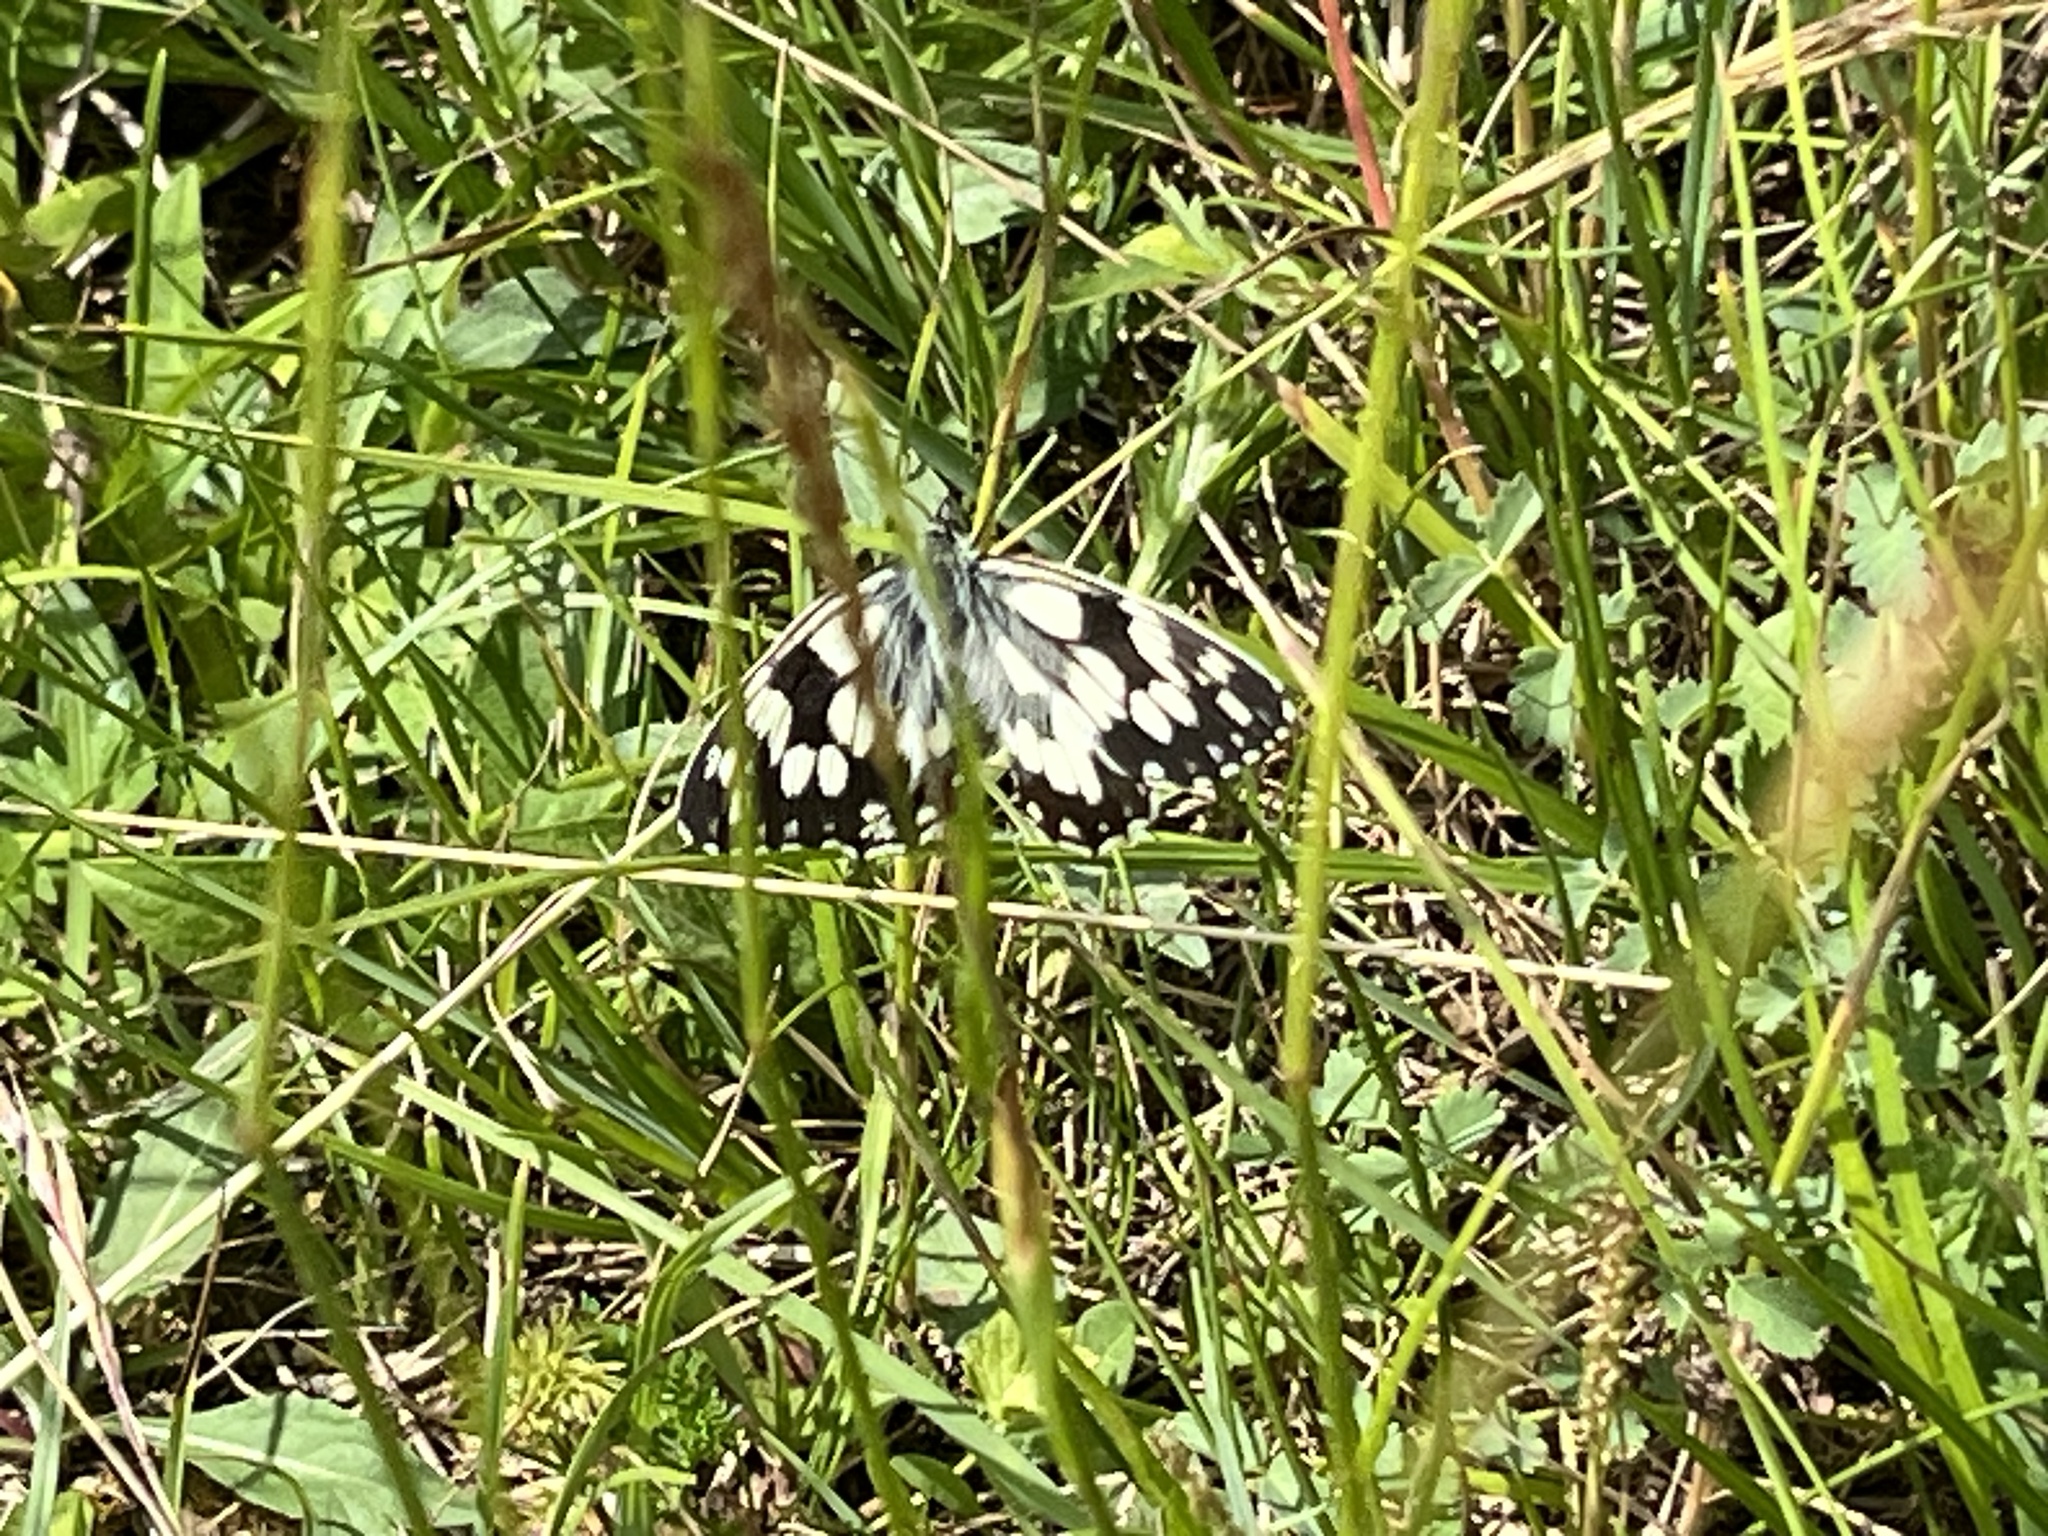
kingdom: Animalia
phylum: Arthropoda
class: Insecta
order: Lepidoptera
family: Nymphalidae
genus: Melanargia
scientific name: Melanargia galathea
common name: Marbled white
